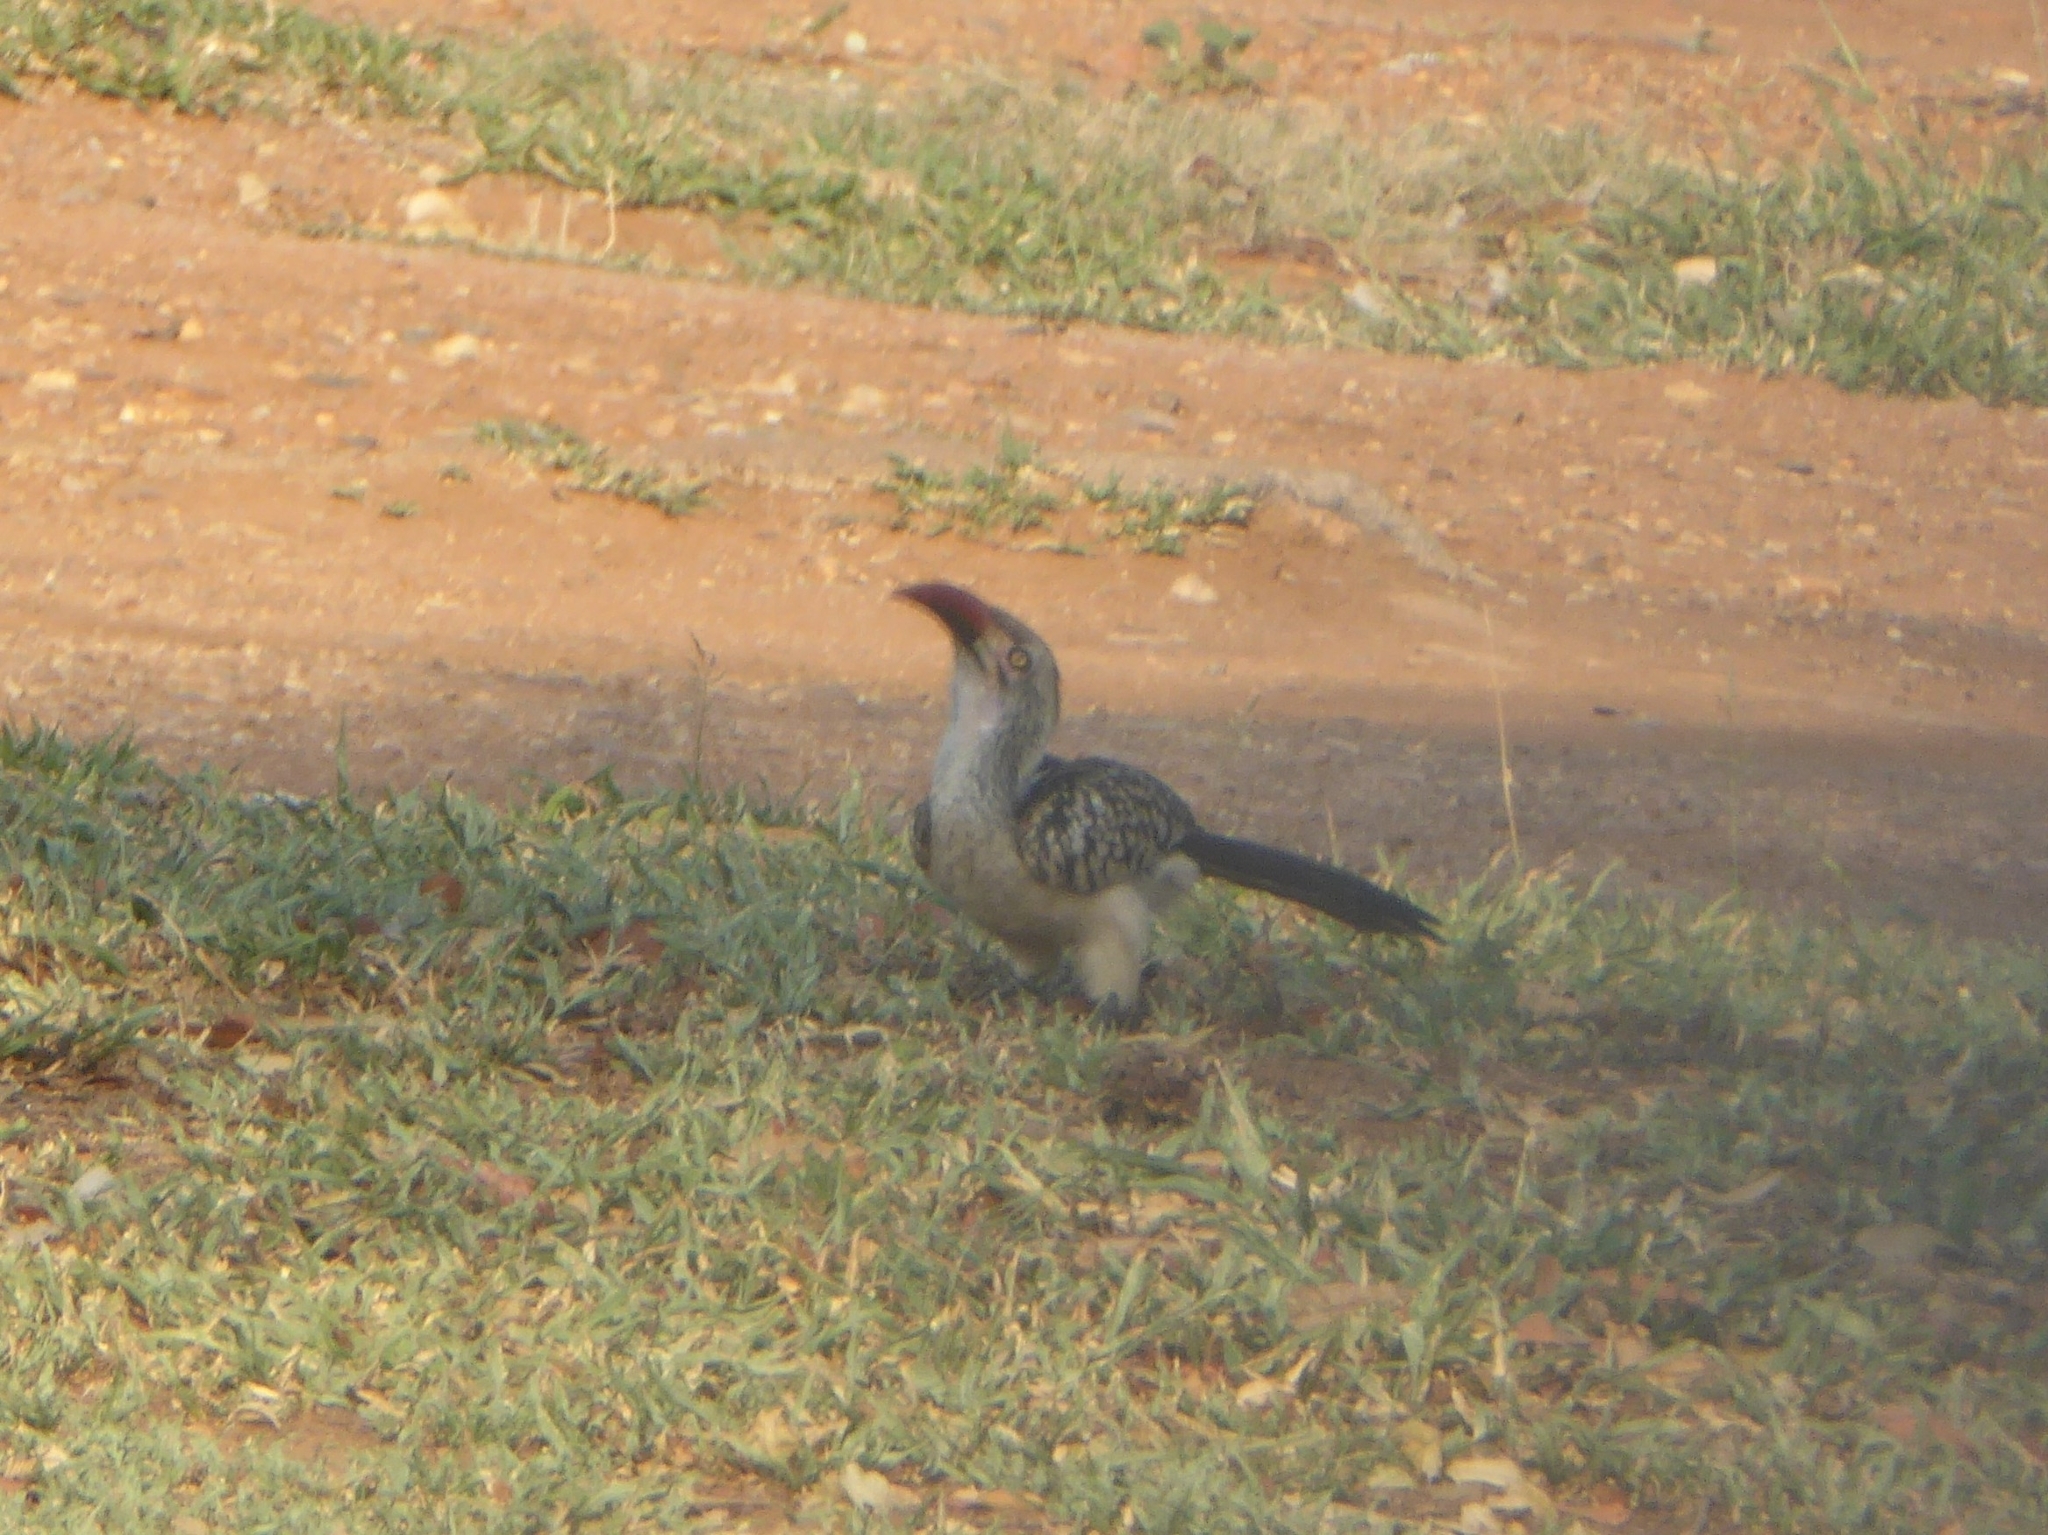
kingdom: Animalia
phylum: Chordata
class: Aves
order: Bucerotiformes
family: Bucerotidae
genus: Tockus
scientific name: Tockus rufirostris
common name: Southern red-billed hornbill
